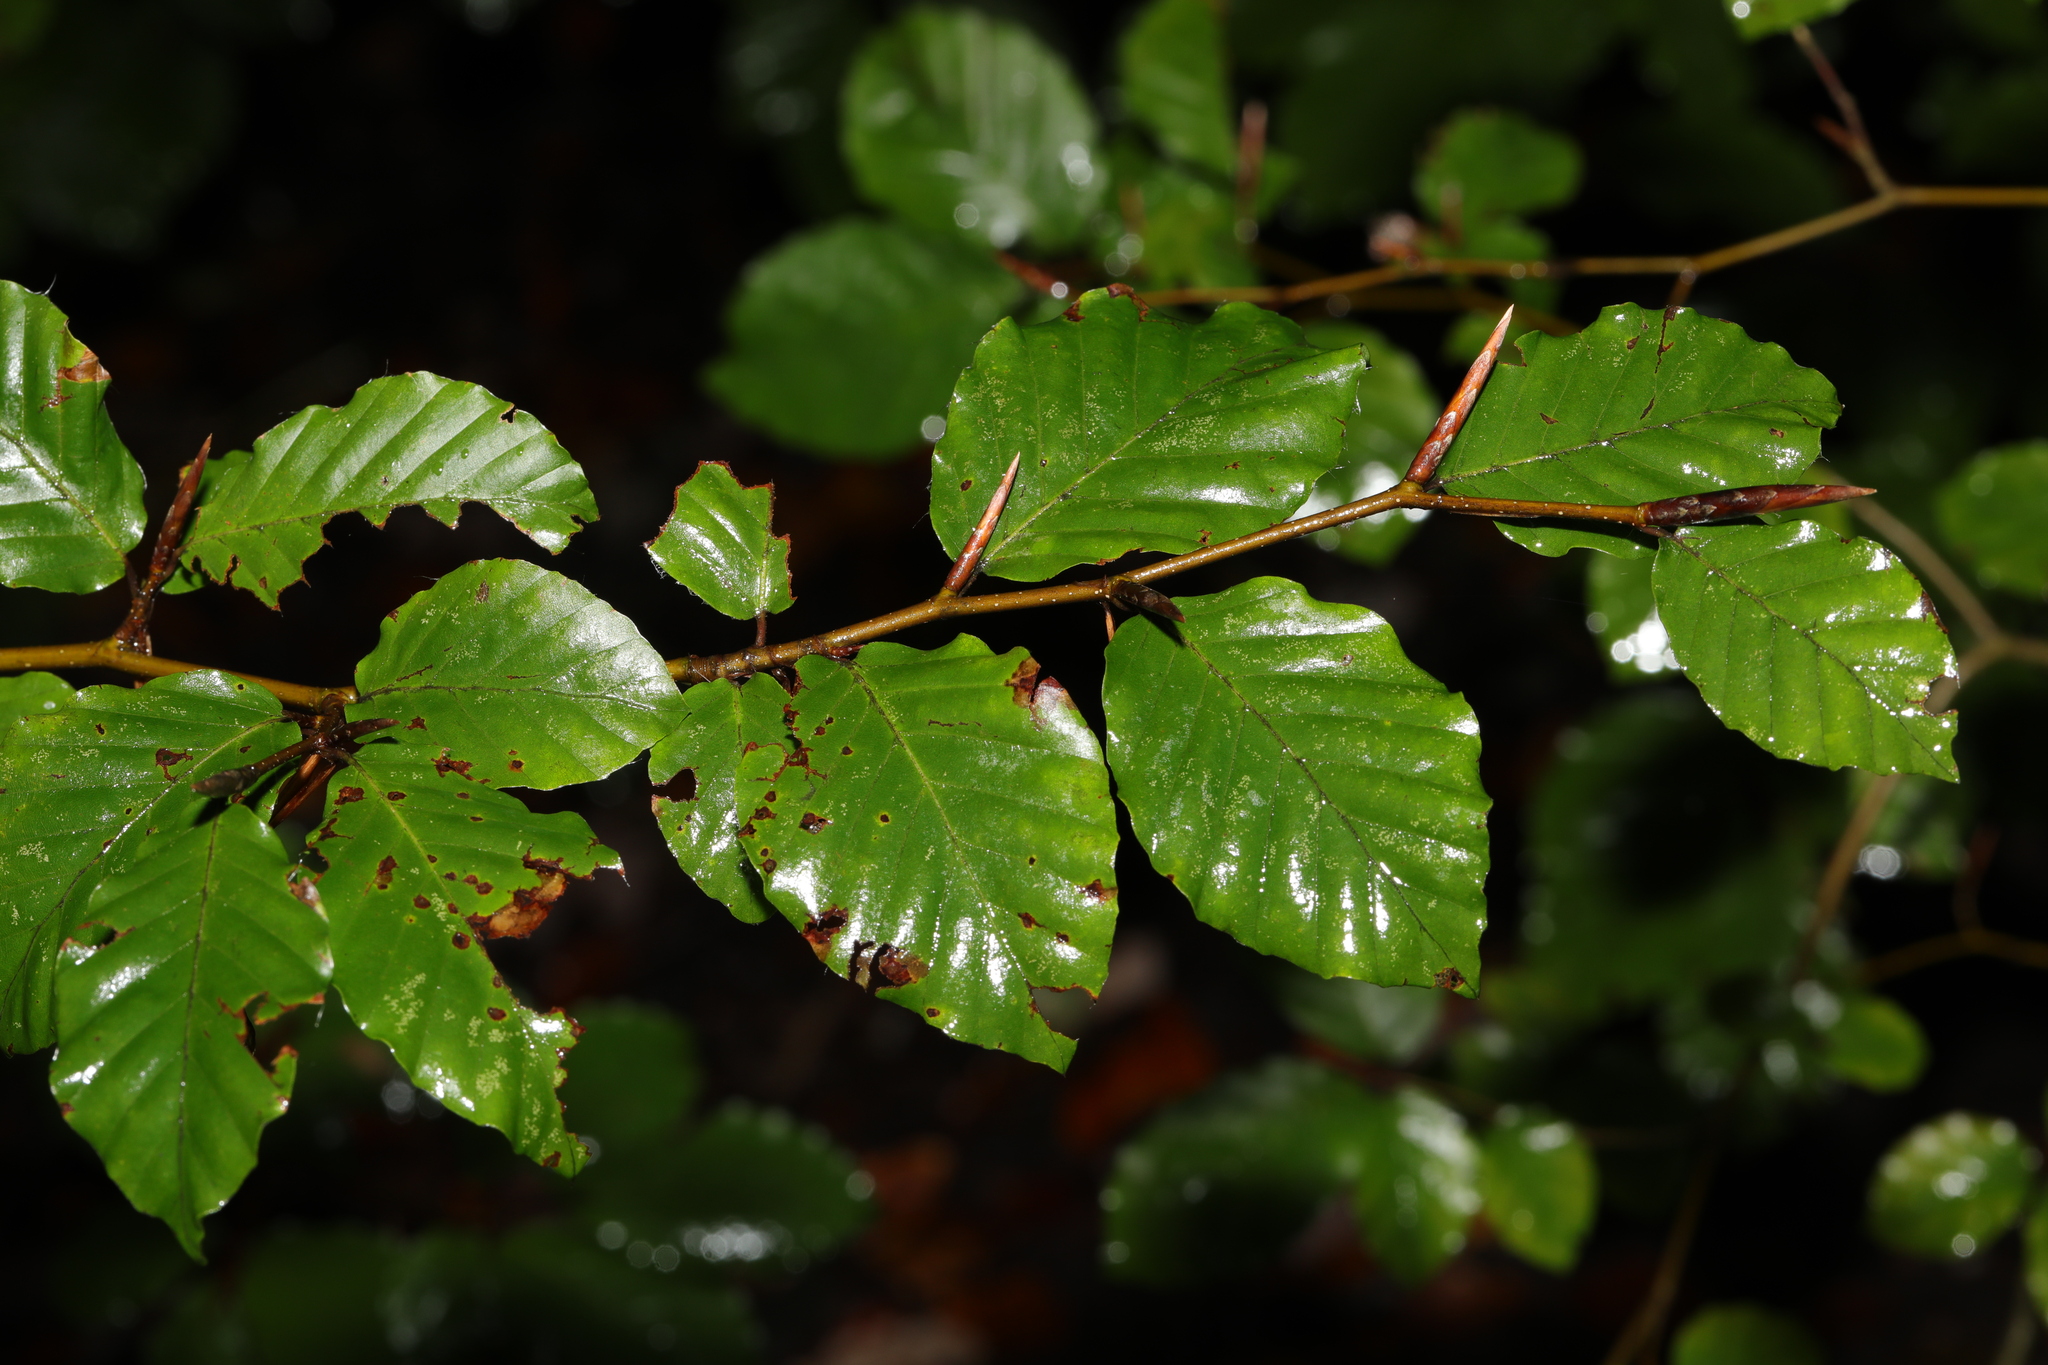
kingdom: Plantae
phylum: Tracheophyta
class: Magnoliopsida
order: Fagales
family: Fagaceae
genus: Fagus
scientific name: Fagus sylvatica
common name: Beech
